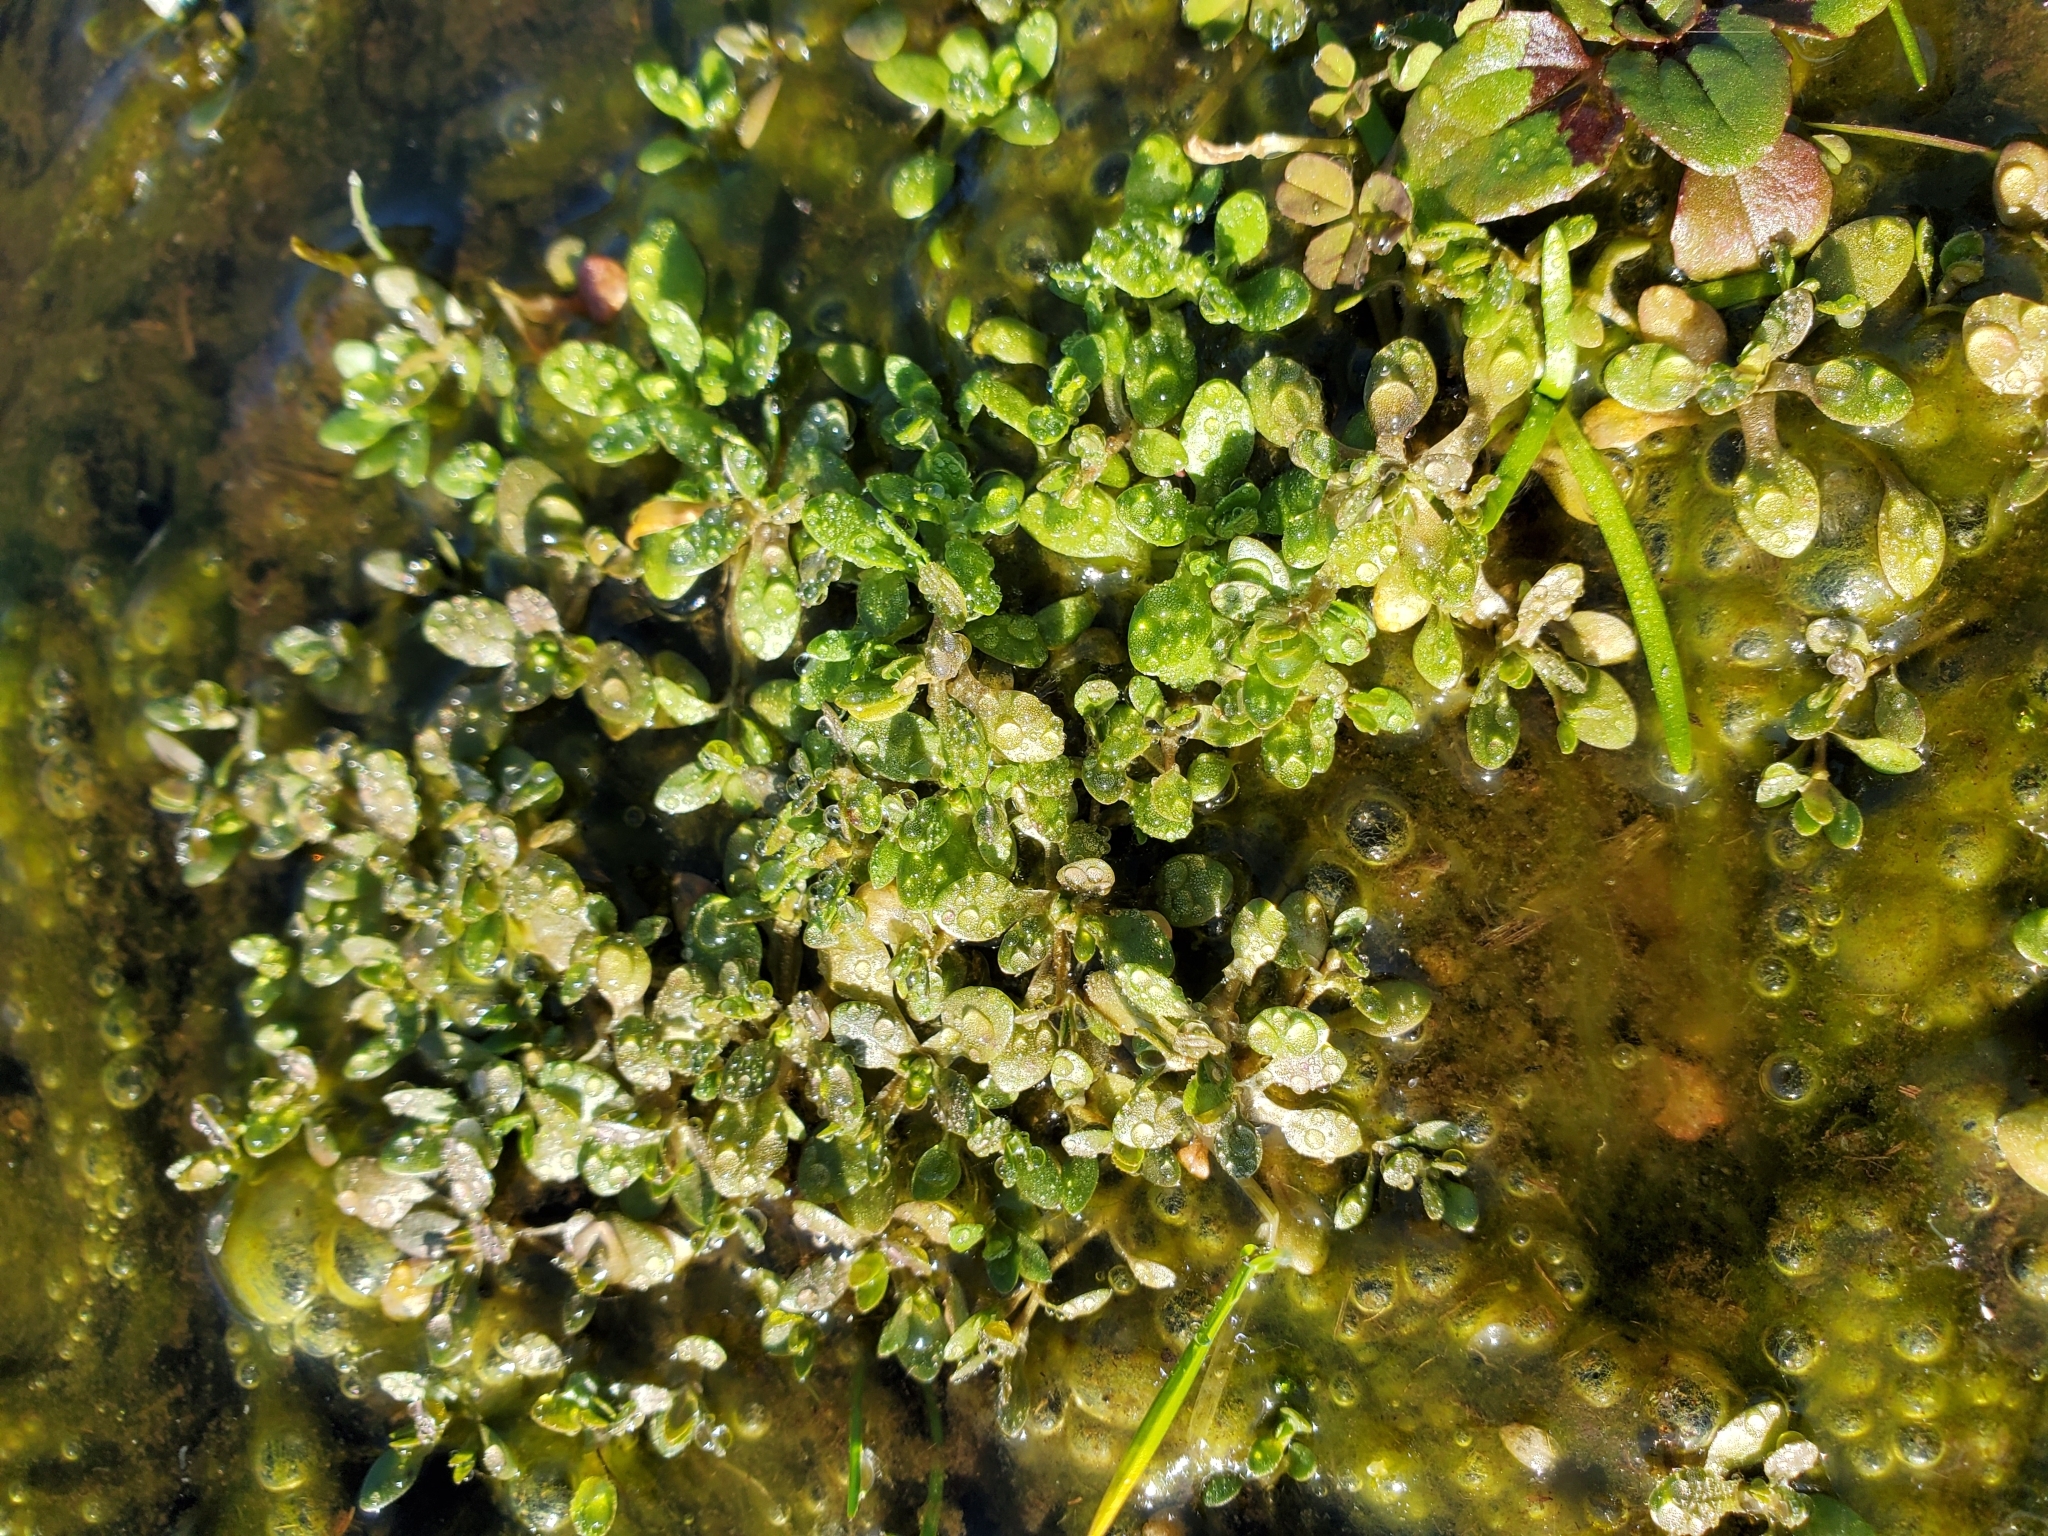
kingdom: Plantae
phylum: Tracheophyta
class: Magnoliopsida
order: Caryophyllales
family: Montiaceae
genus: Montia
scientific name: Montia fontana
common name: Blinks
